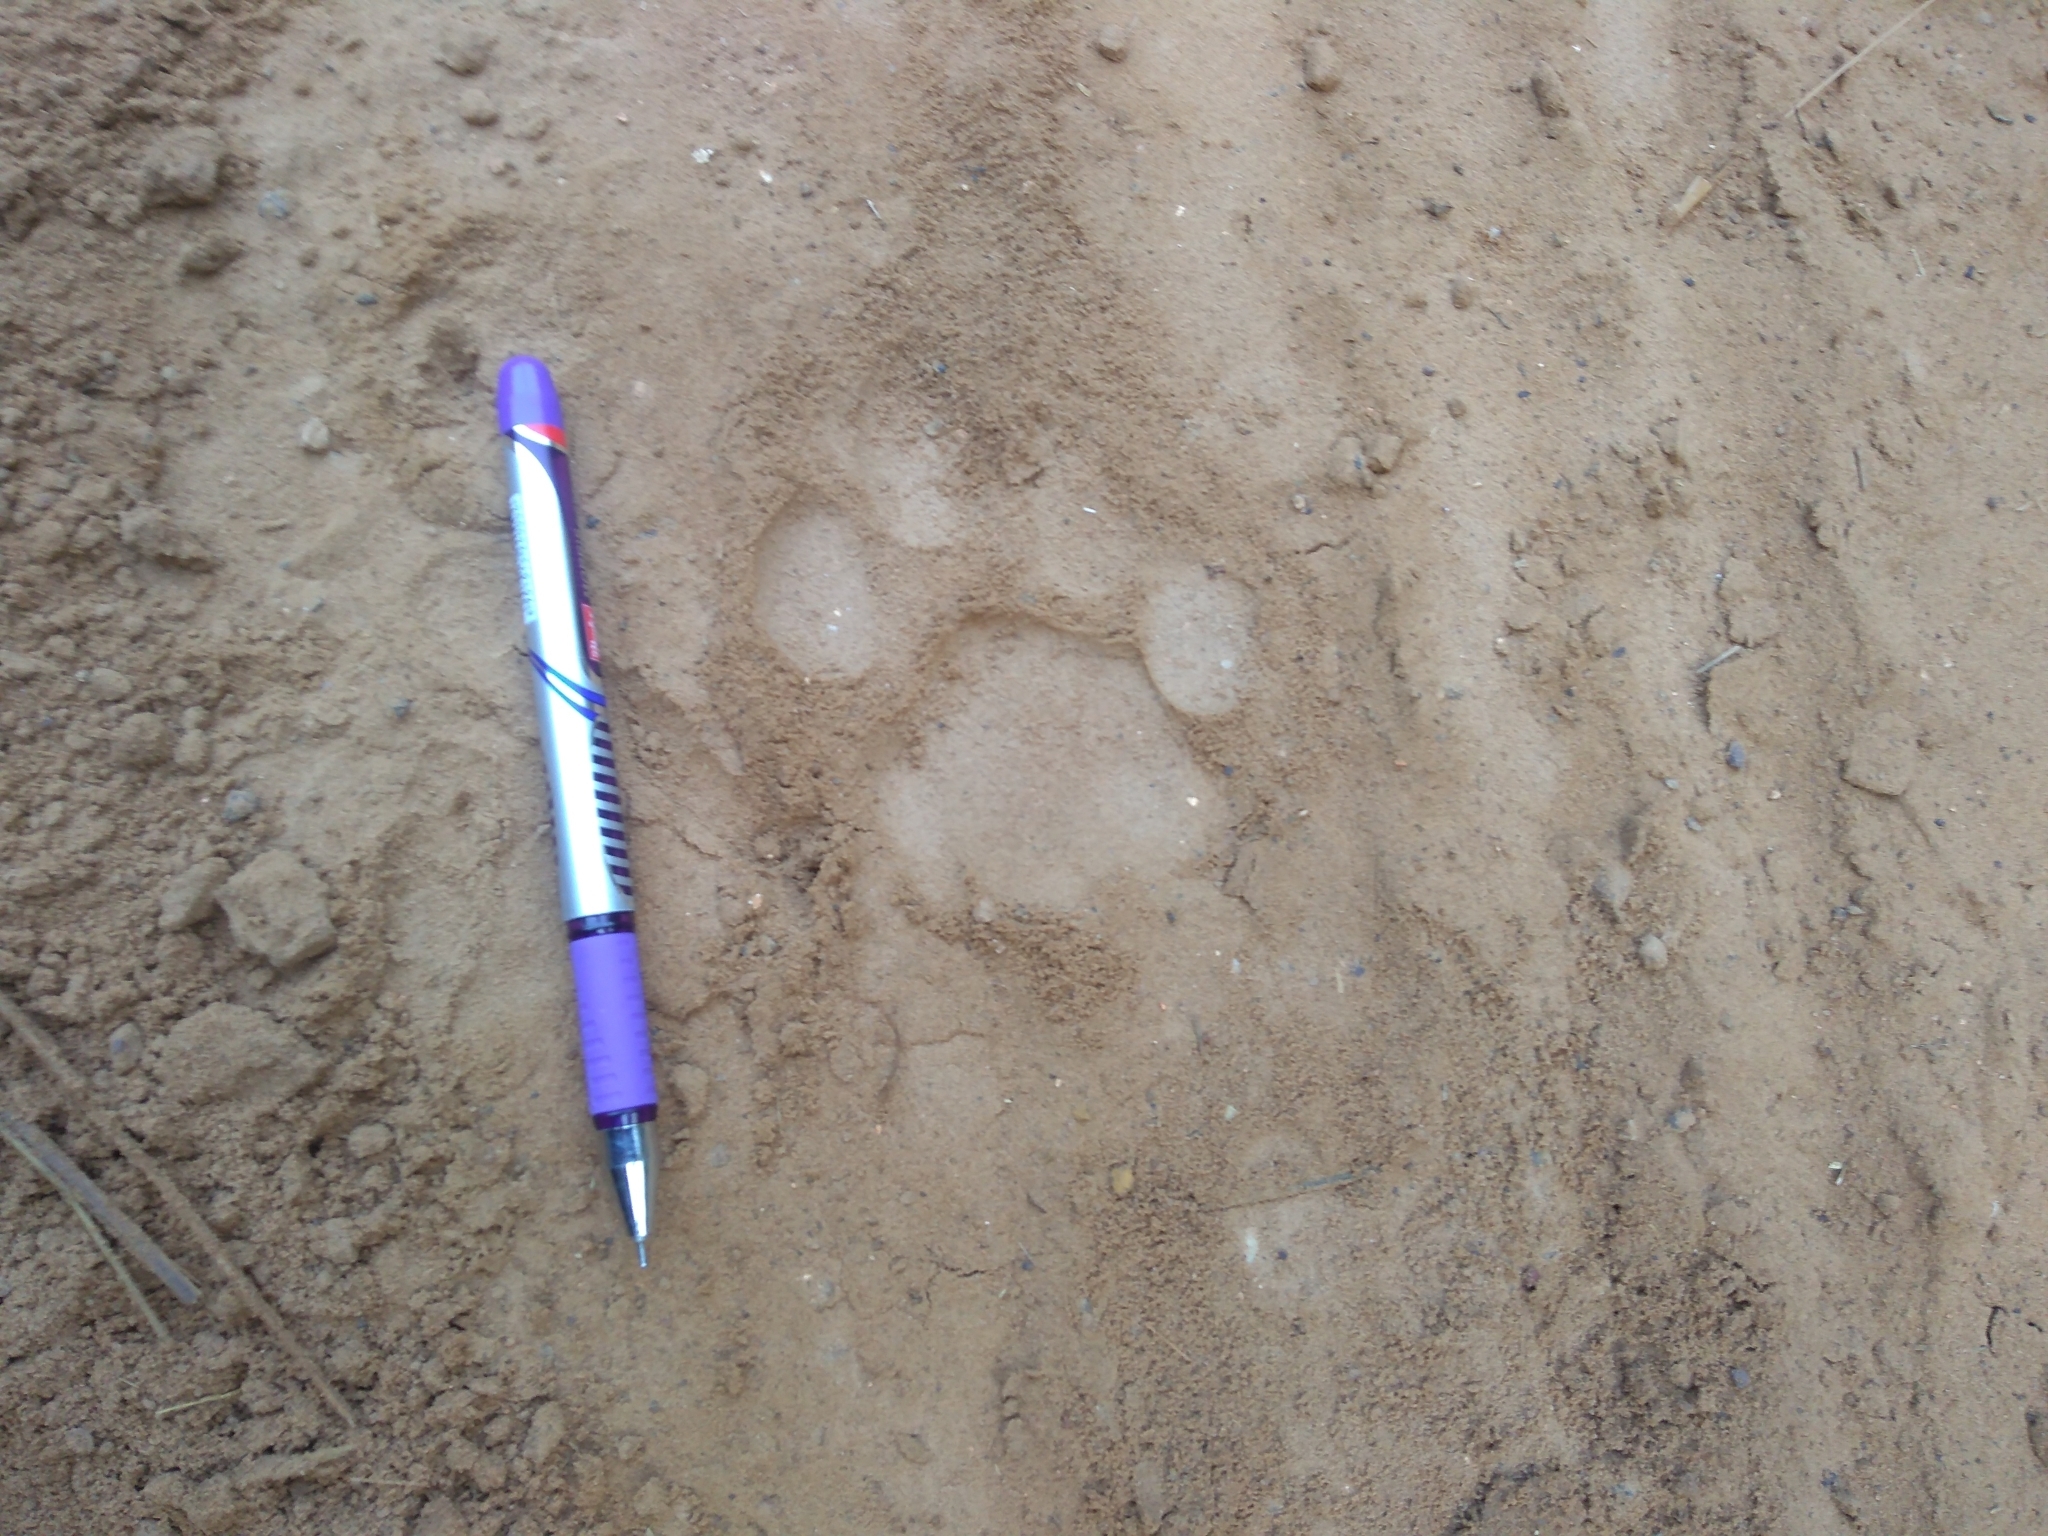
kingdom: Animalia
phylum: Chordata
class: Mammalia
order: Carnivora
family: Felidae
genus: Panthera
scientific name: Panthera tigris
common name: Tiger
